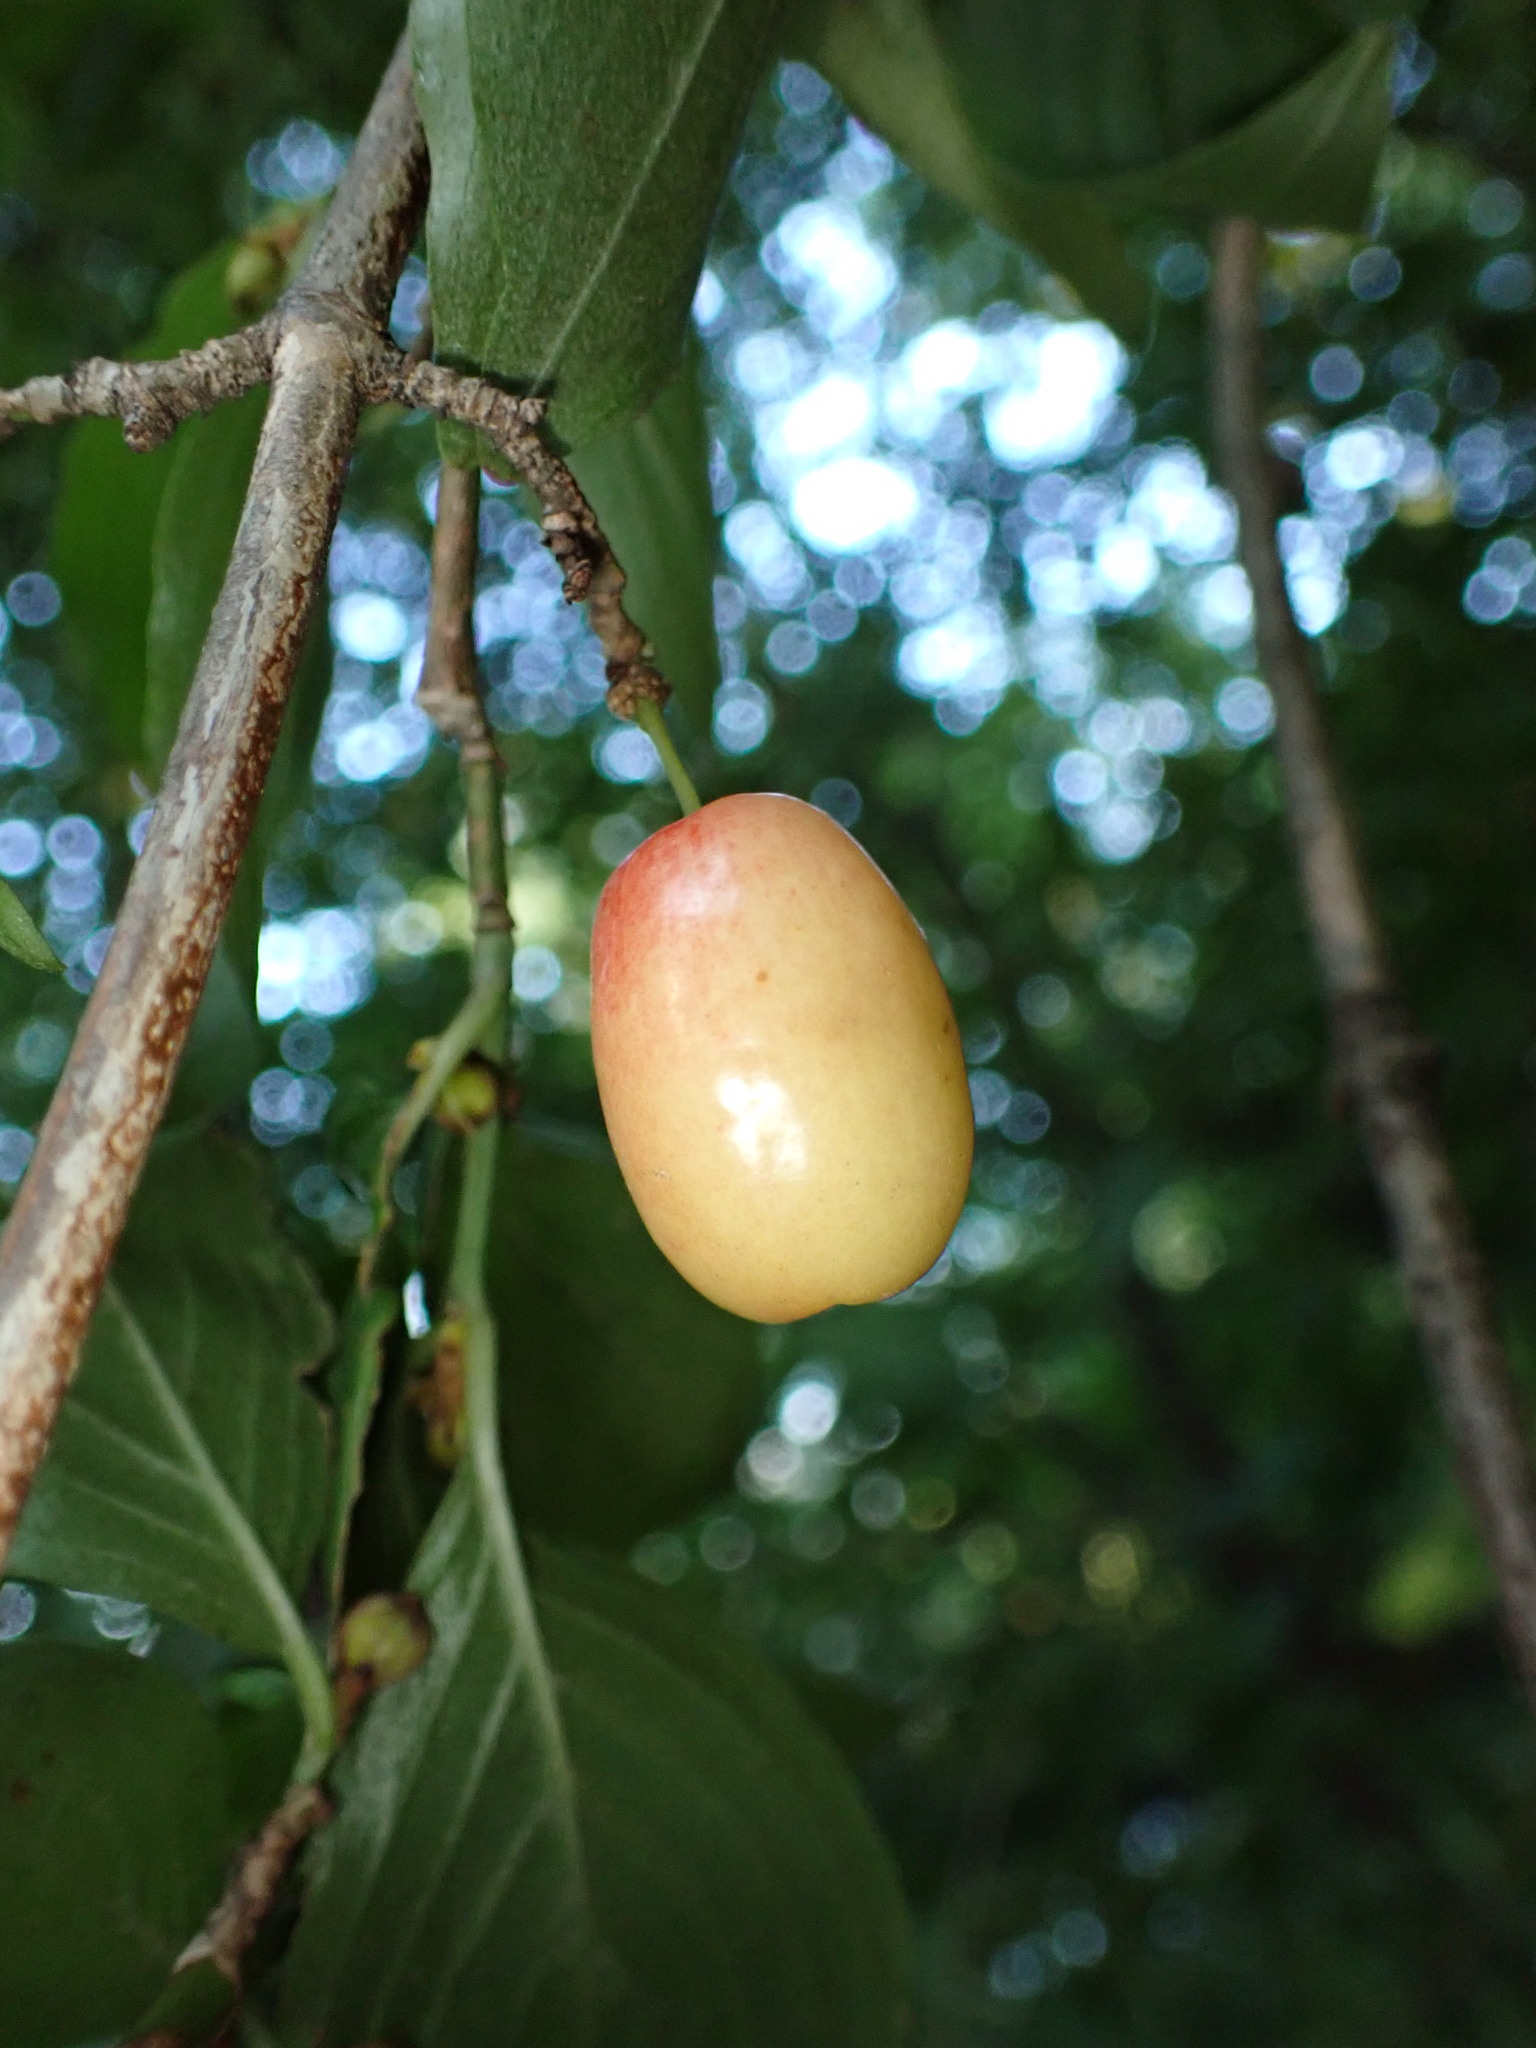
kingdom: Plantae
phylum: Tracheophyta
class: Magnoliopsida
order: Cornales
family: Cornaceae
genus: Cornus
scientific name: Cornus mas
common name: Cornelian-cherry
